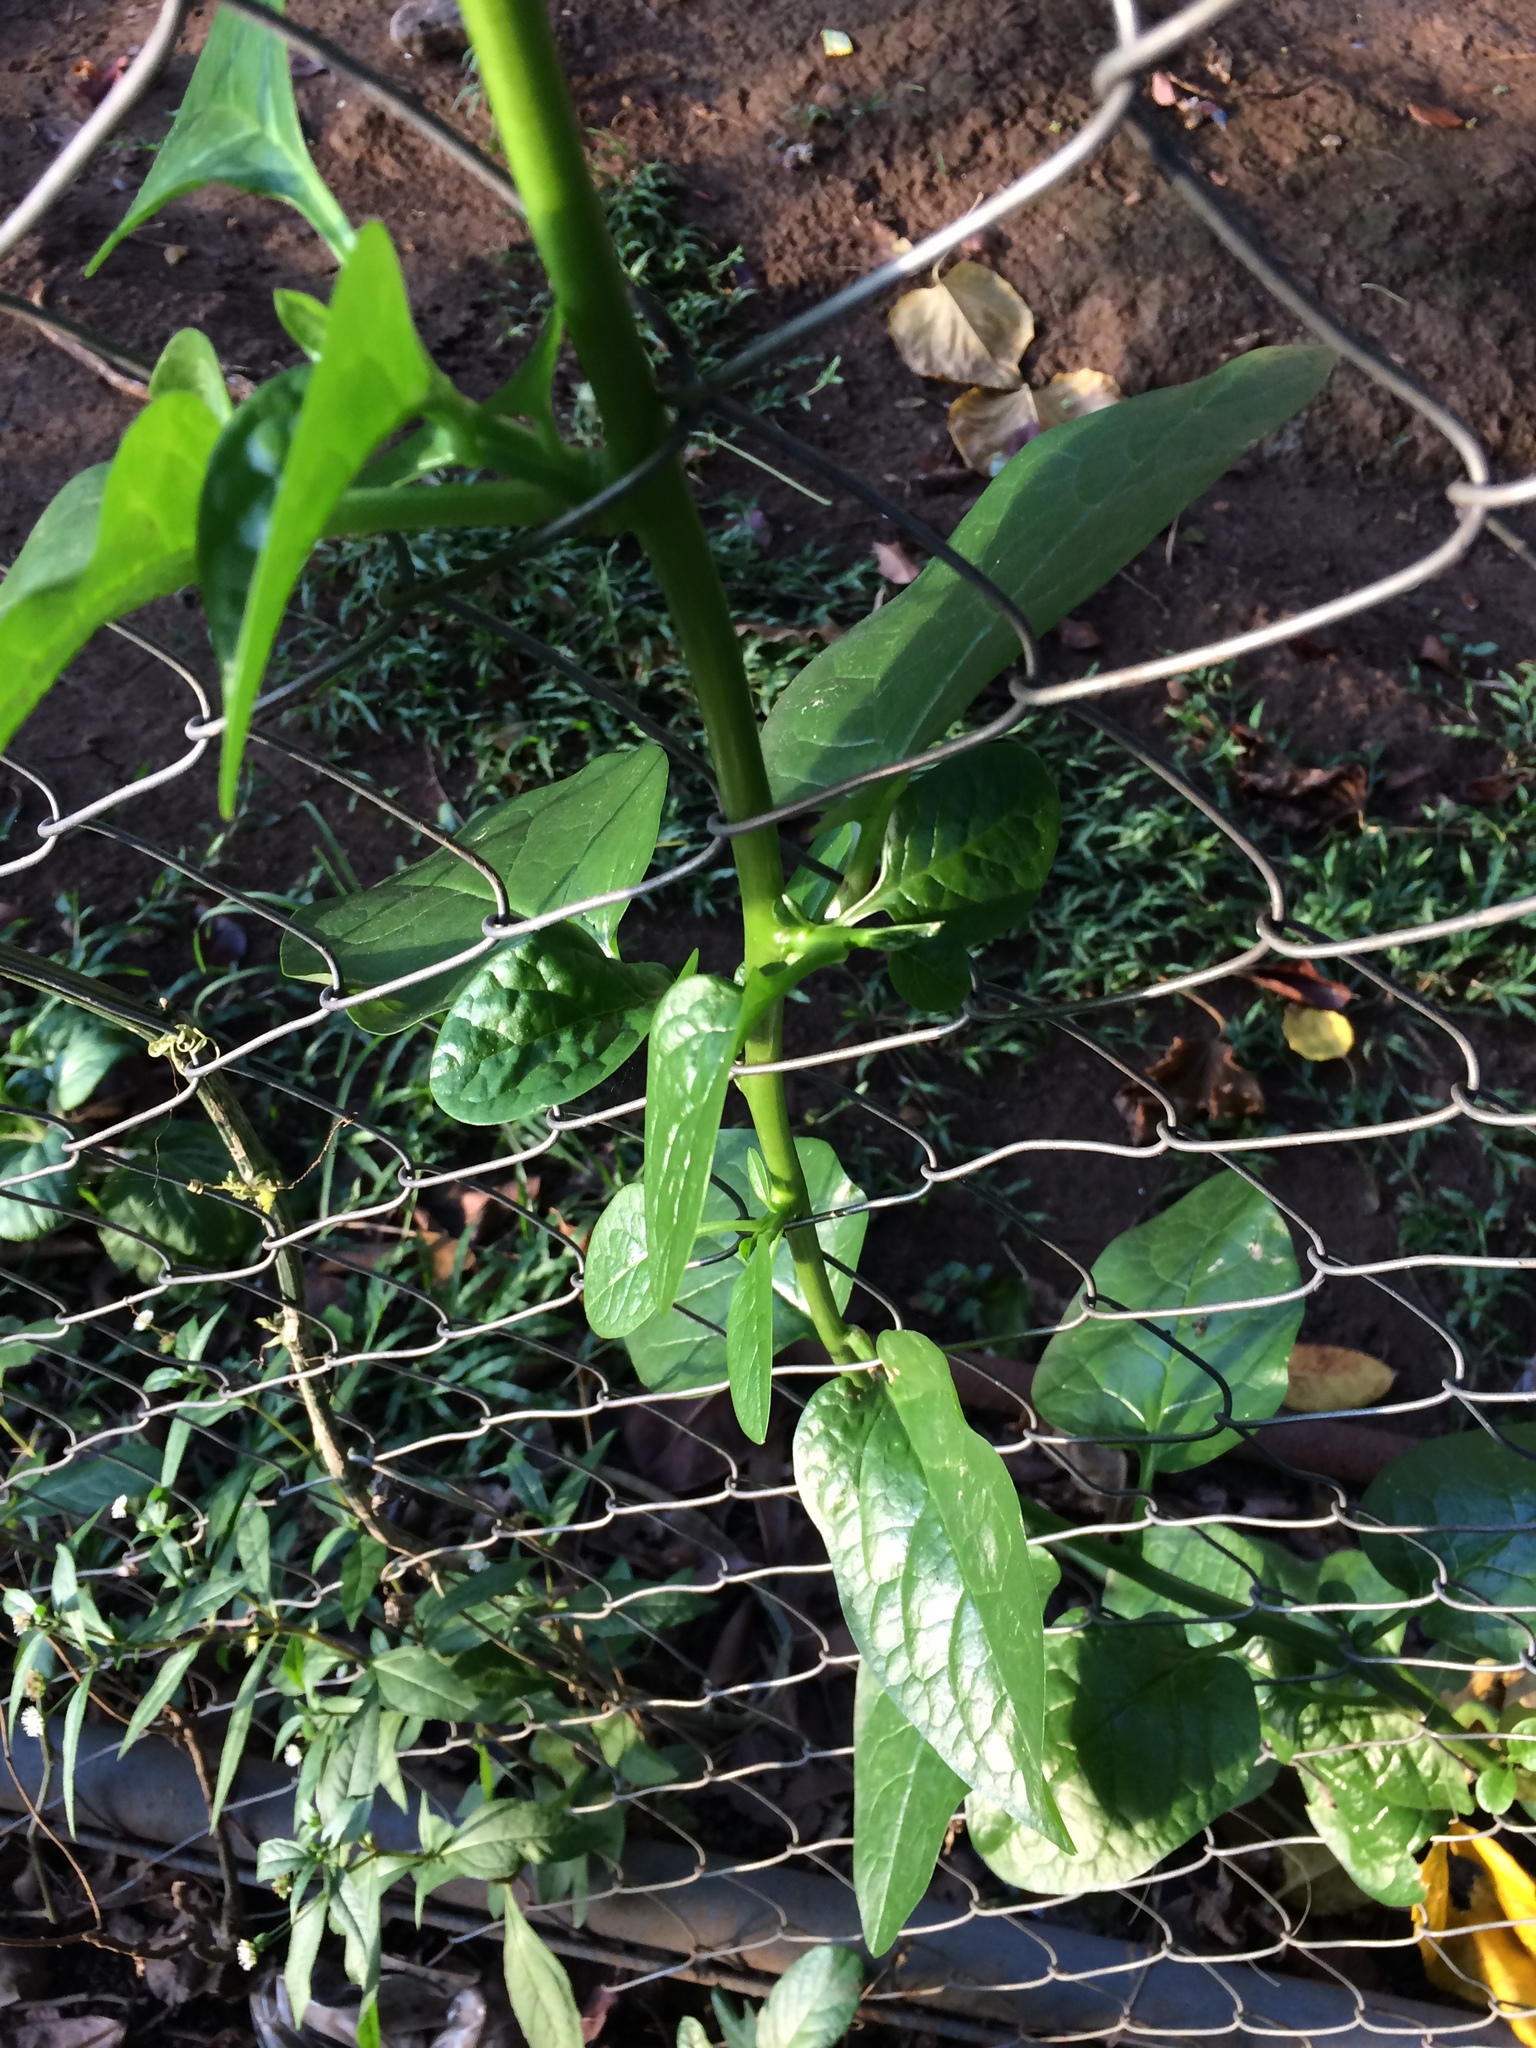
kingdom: Plantae
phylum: Tracheophyta
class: Magnoliopsida
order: Caryophyllales
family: Basellaceae
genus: Basella
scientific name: Basella alba
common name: Indian spinach
